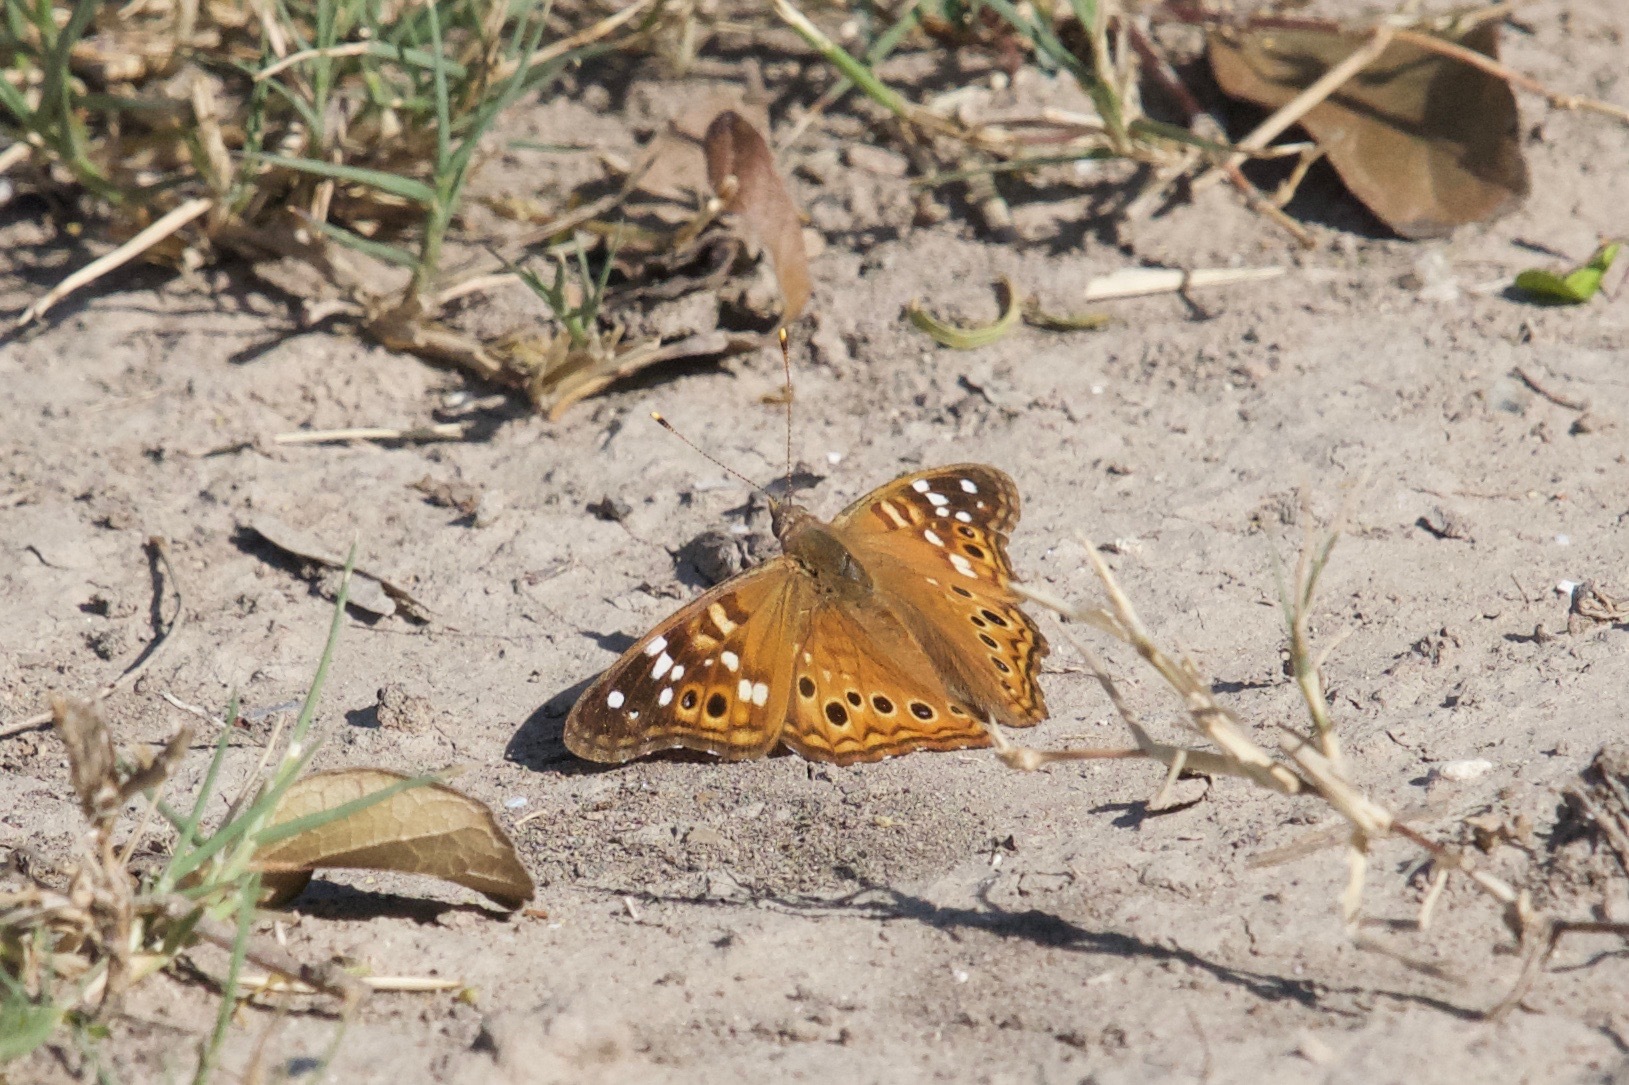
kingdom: Animalia
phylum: Arthropoda
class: Insecta
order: Lepidoptera
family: Nymphalidae
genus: Asterocampa
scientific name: Asterocampa leilia
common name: Empress leilia
